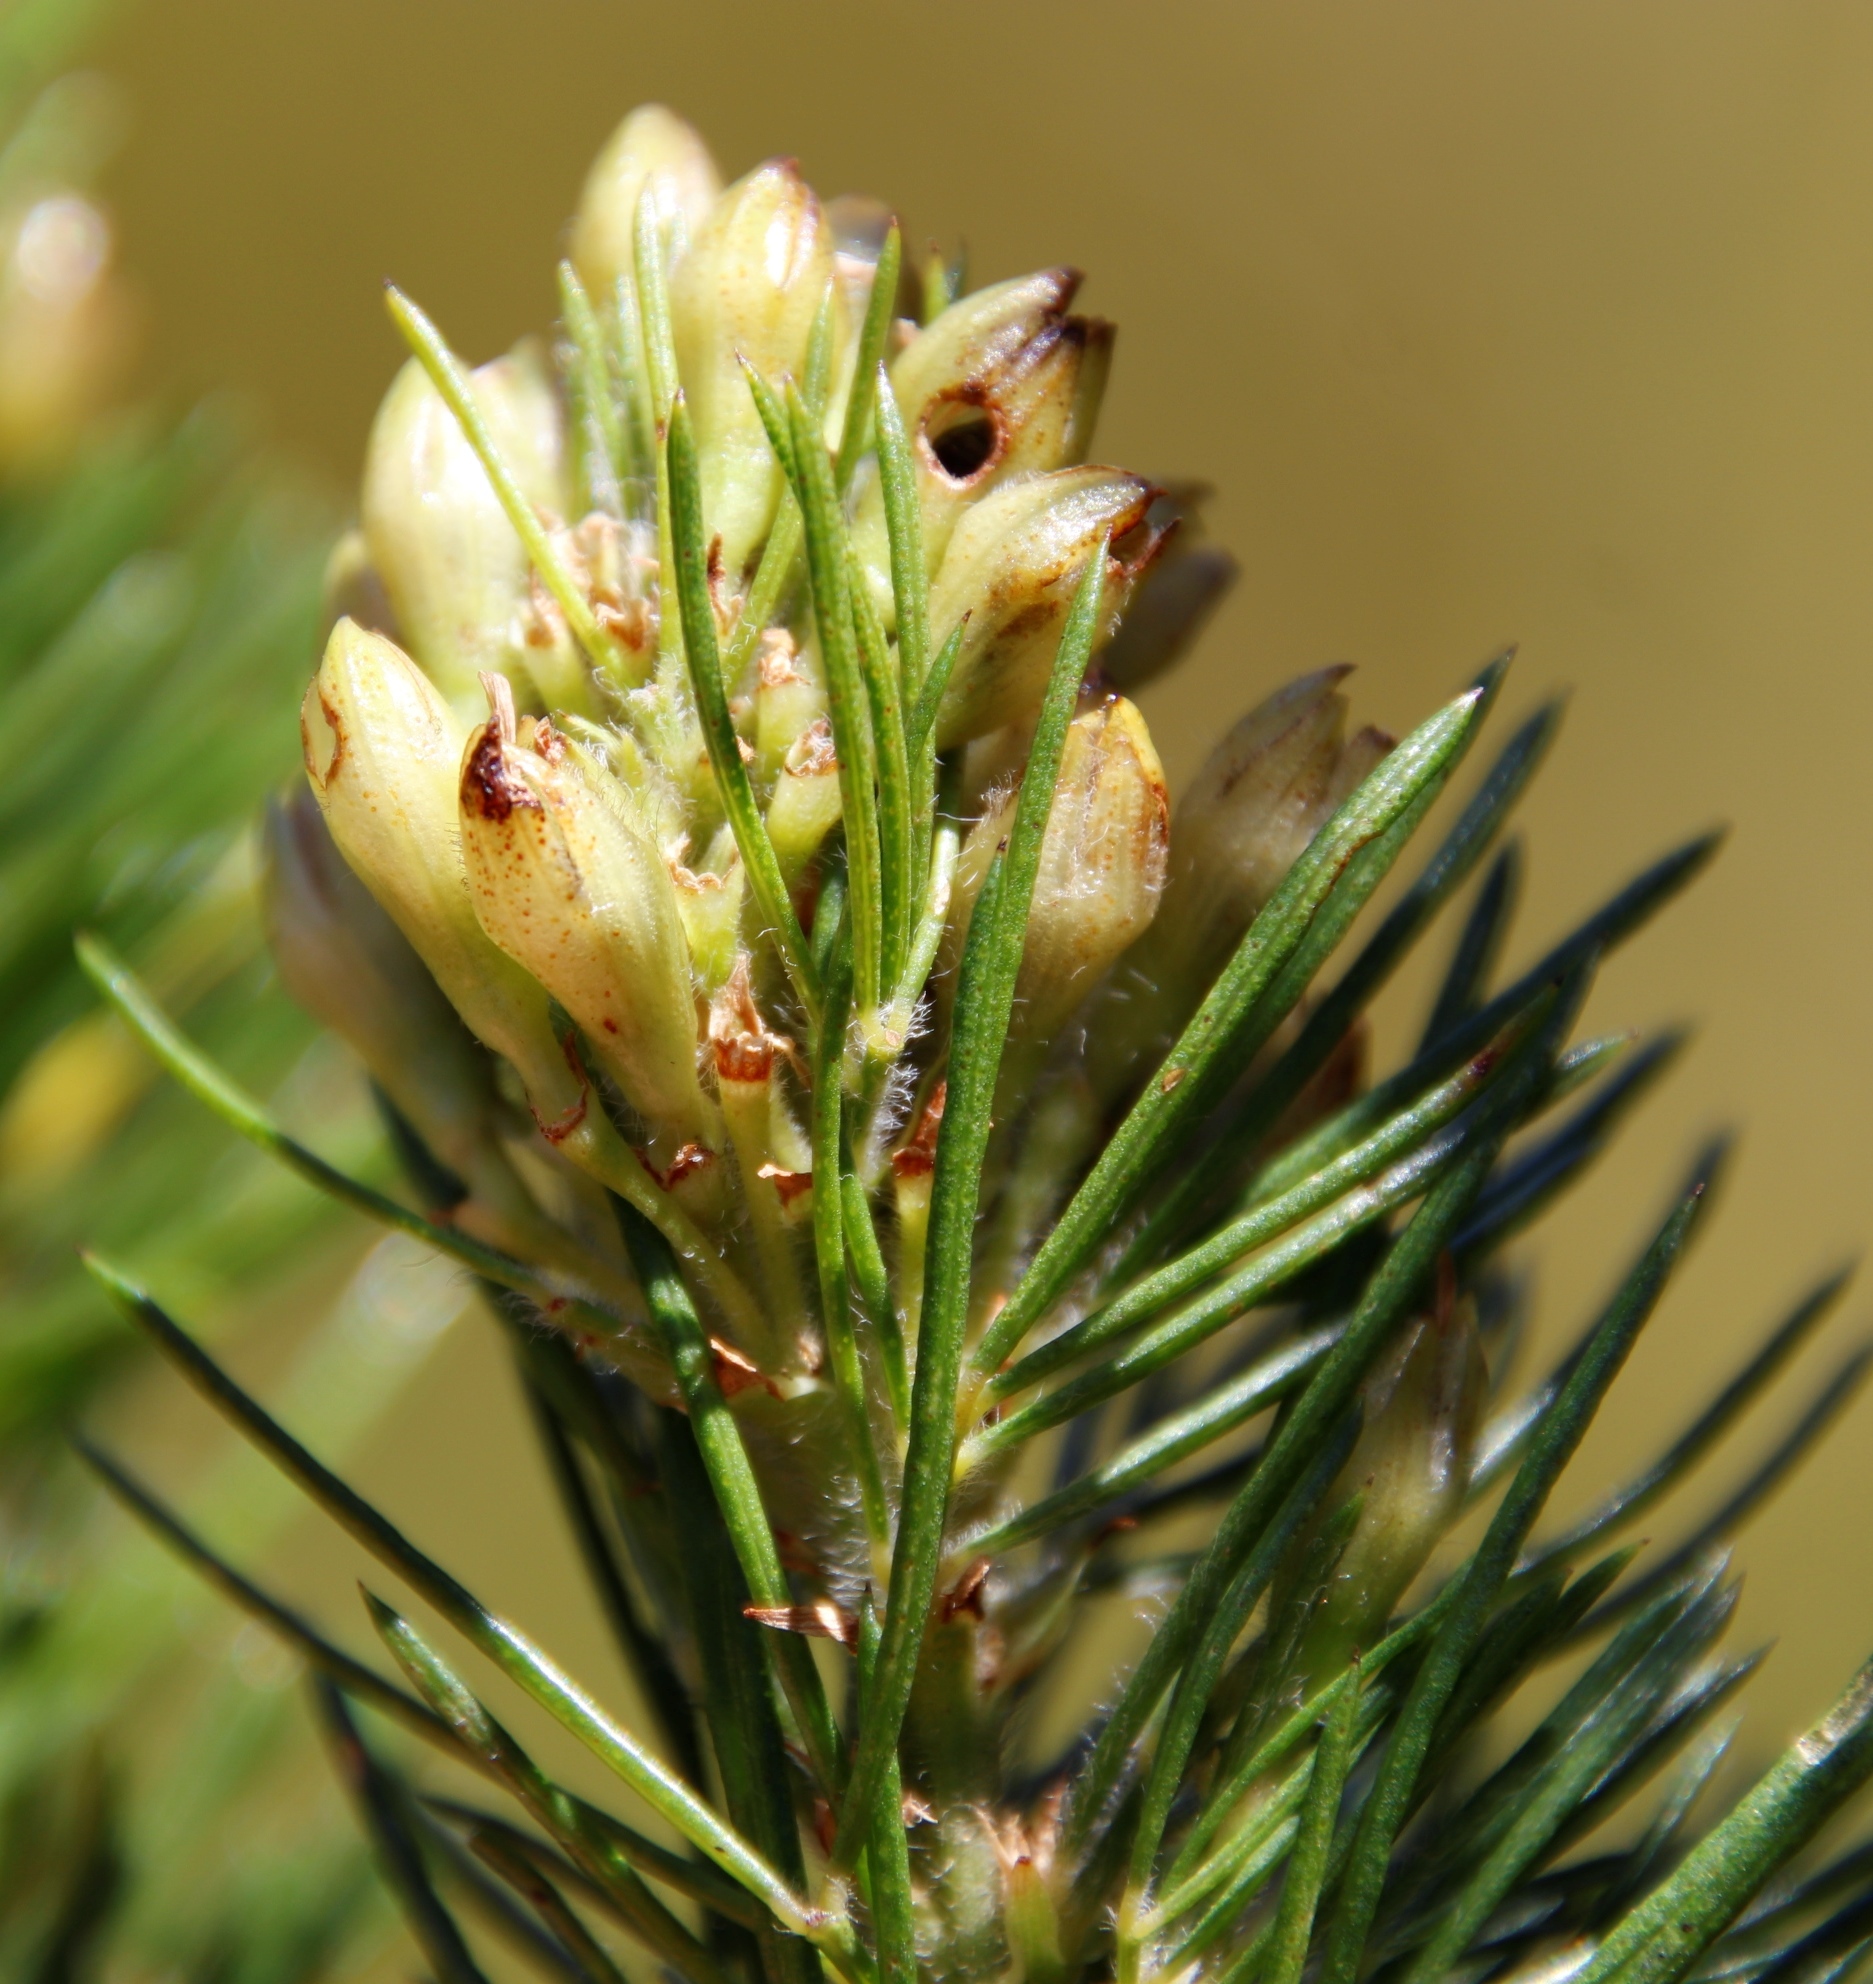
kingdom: Plantae
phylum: Tracheophyta
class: Magnoliopsida
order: Fabales
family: Fabaceae
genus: Psoralea
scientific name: Psoralea ivumba
